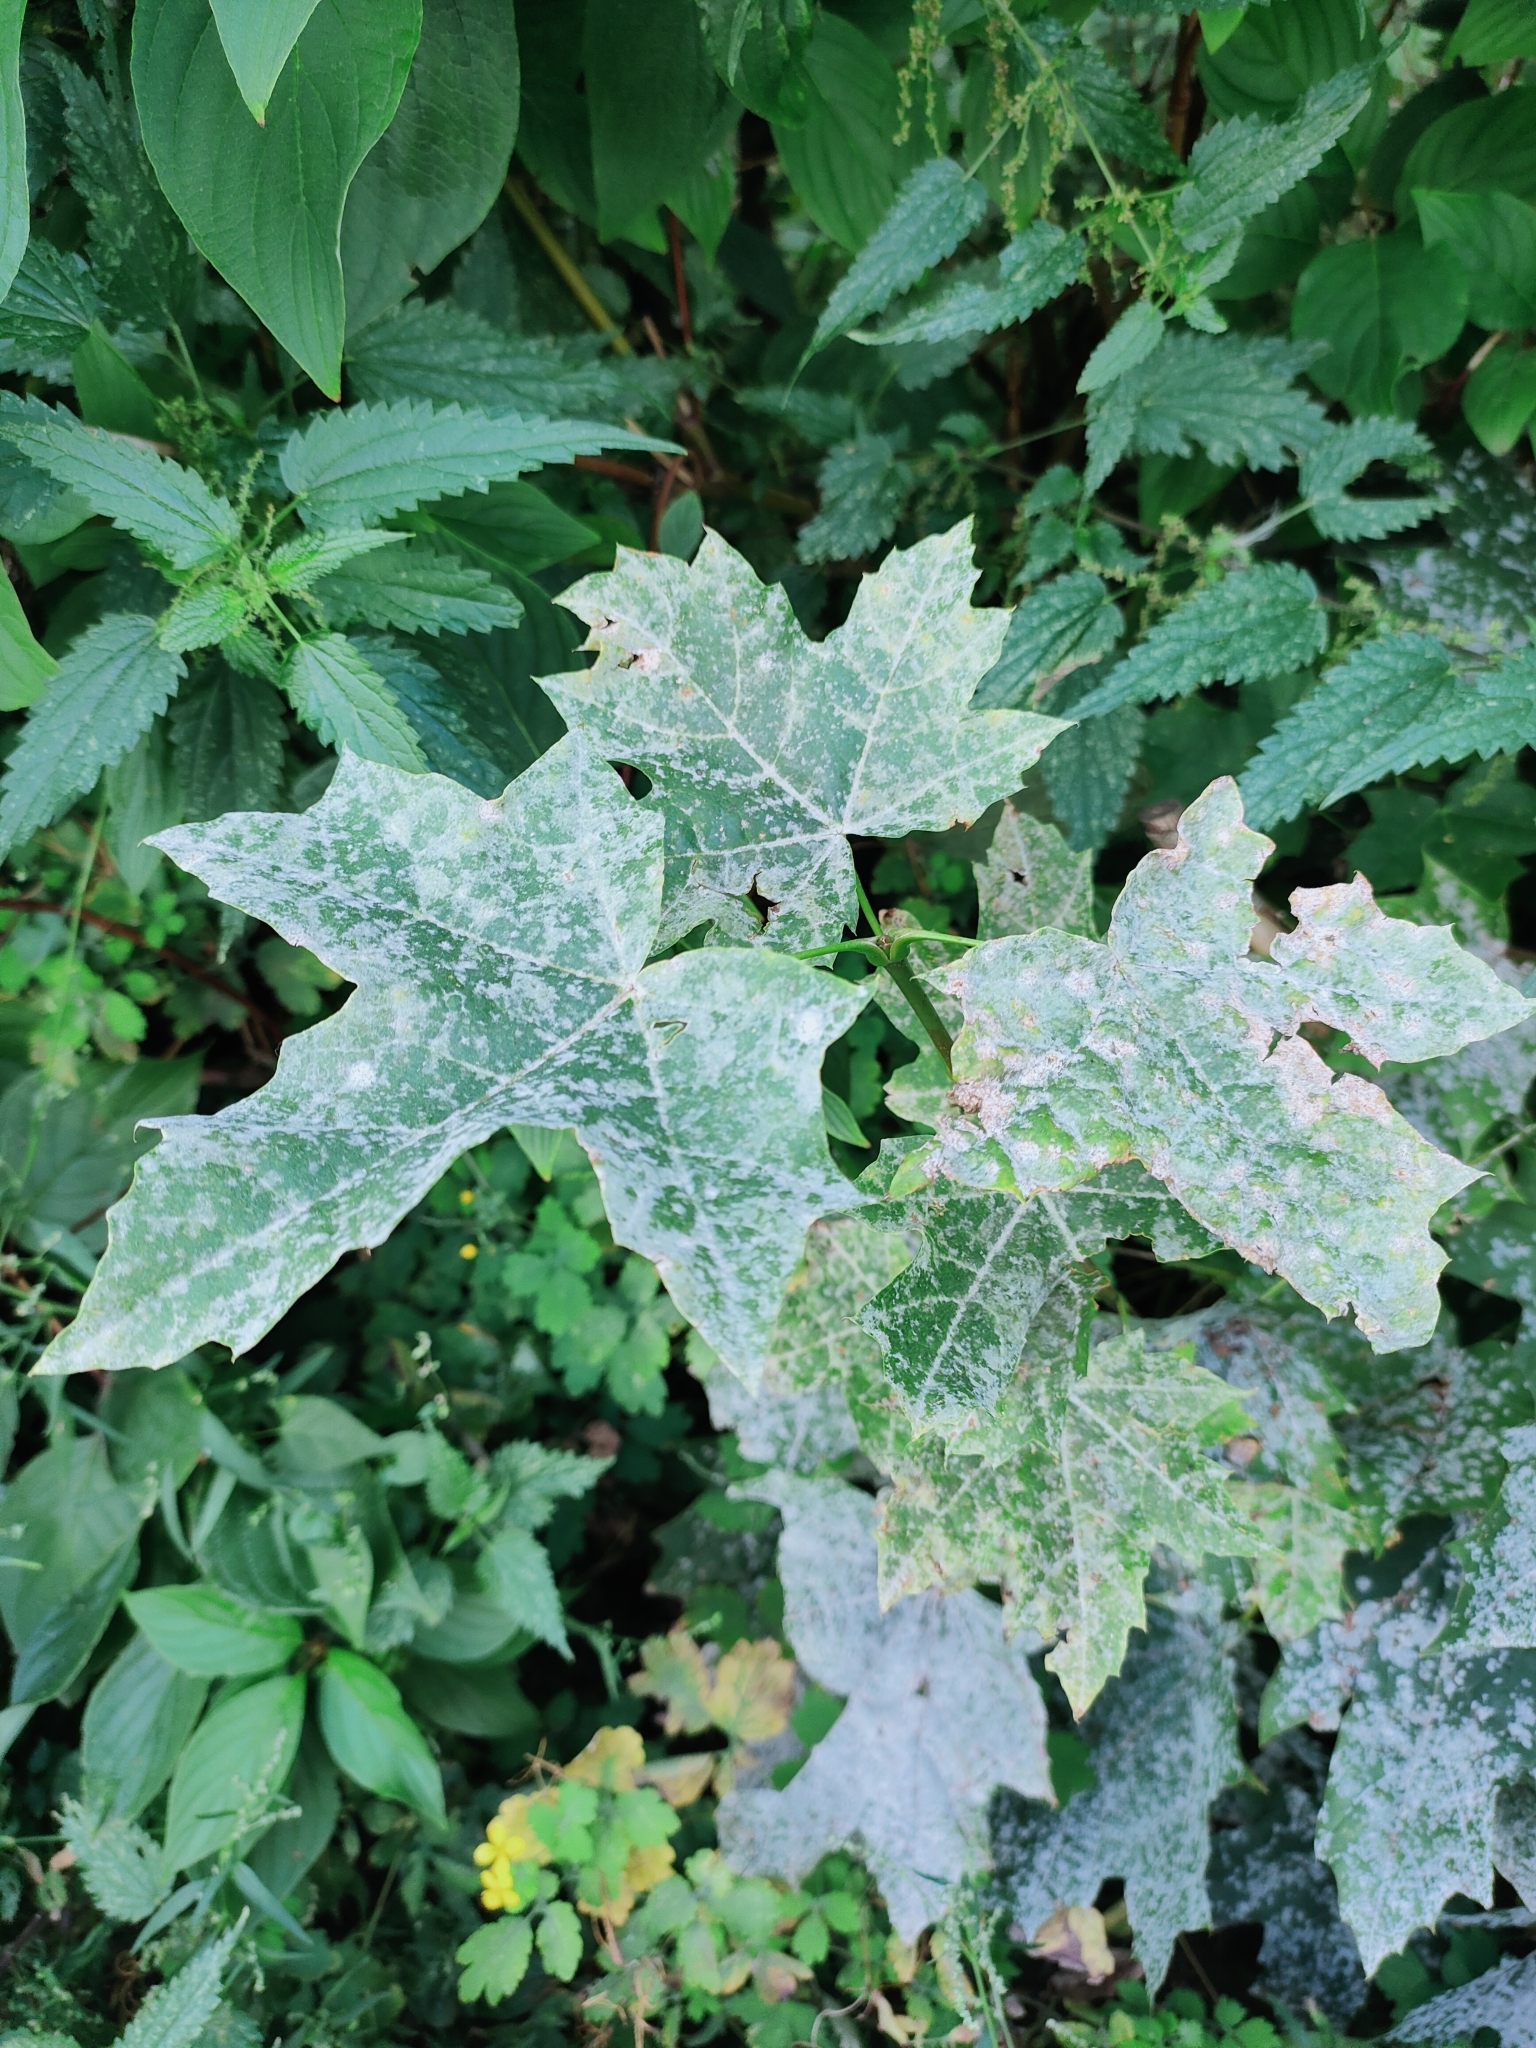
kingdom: Plantae
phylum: Tracheophyta
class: Magnoliopsida
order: Sapindales
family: Sapindaceae
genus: Acer
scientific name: Acer platanoides
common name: Norway maple
